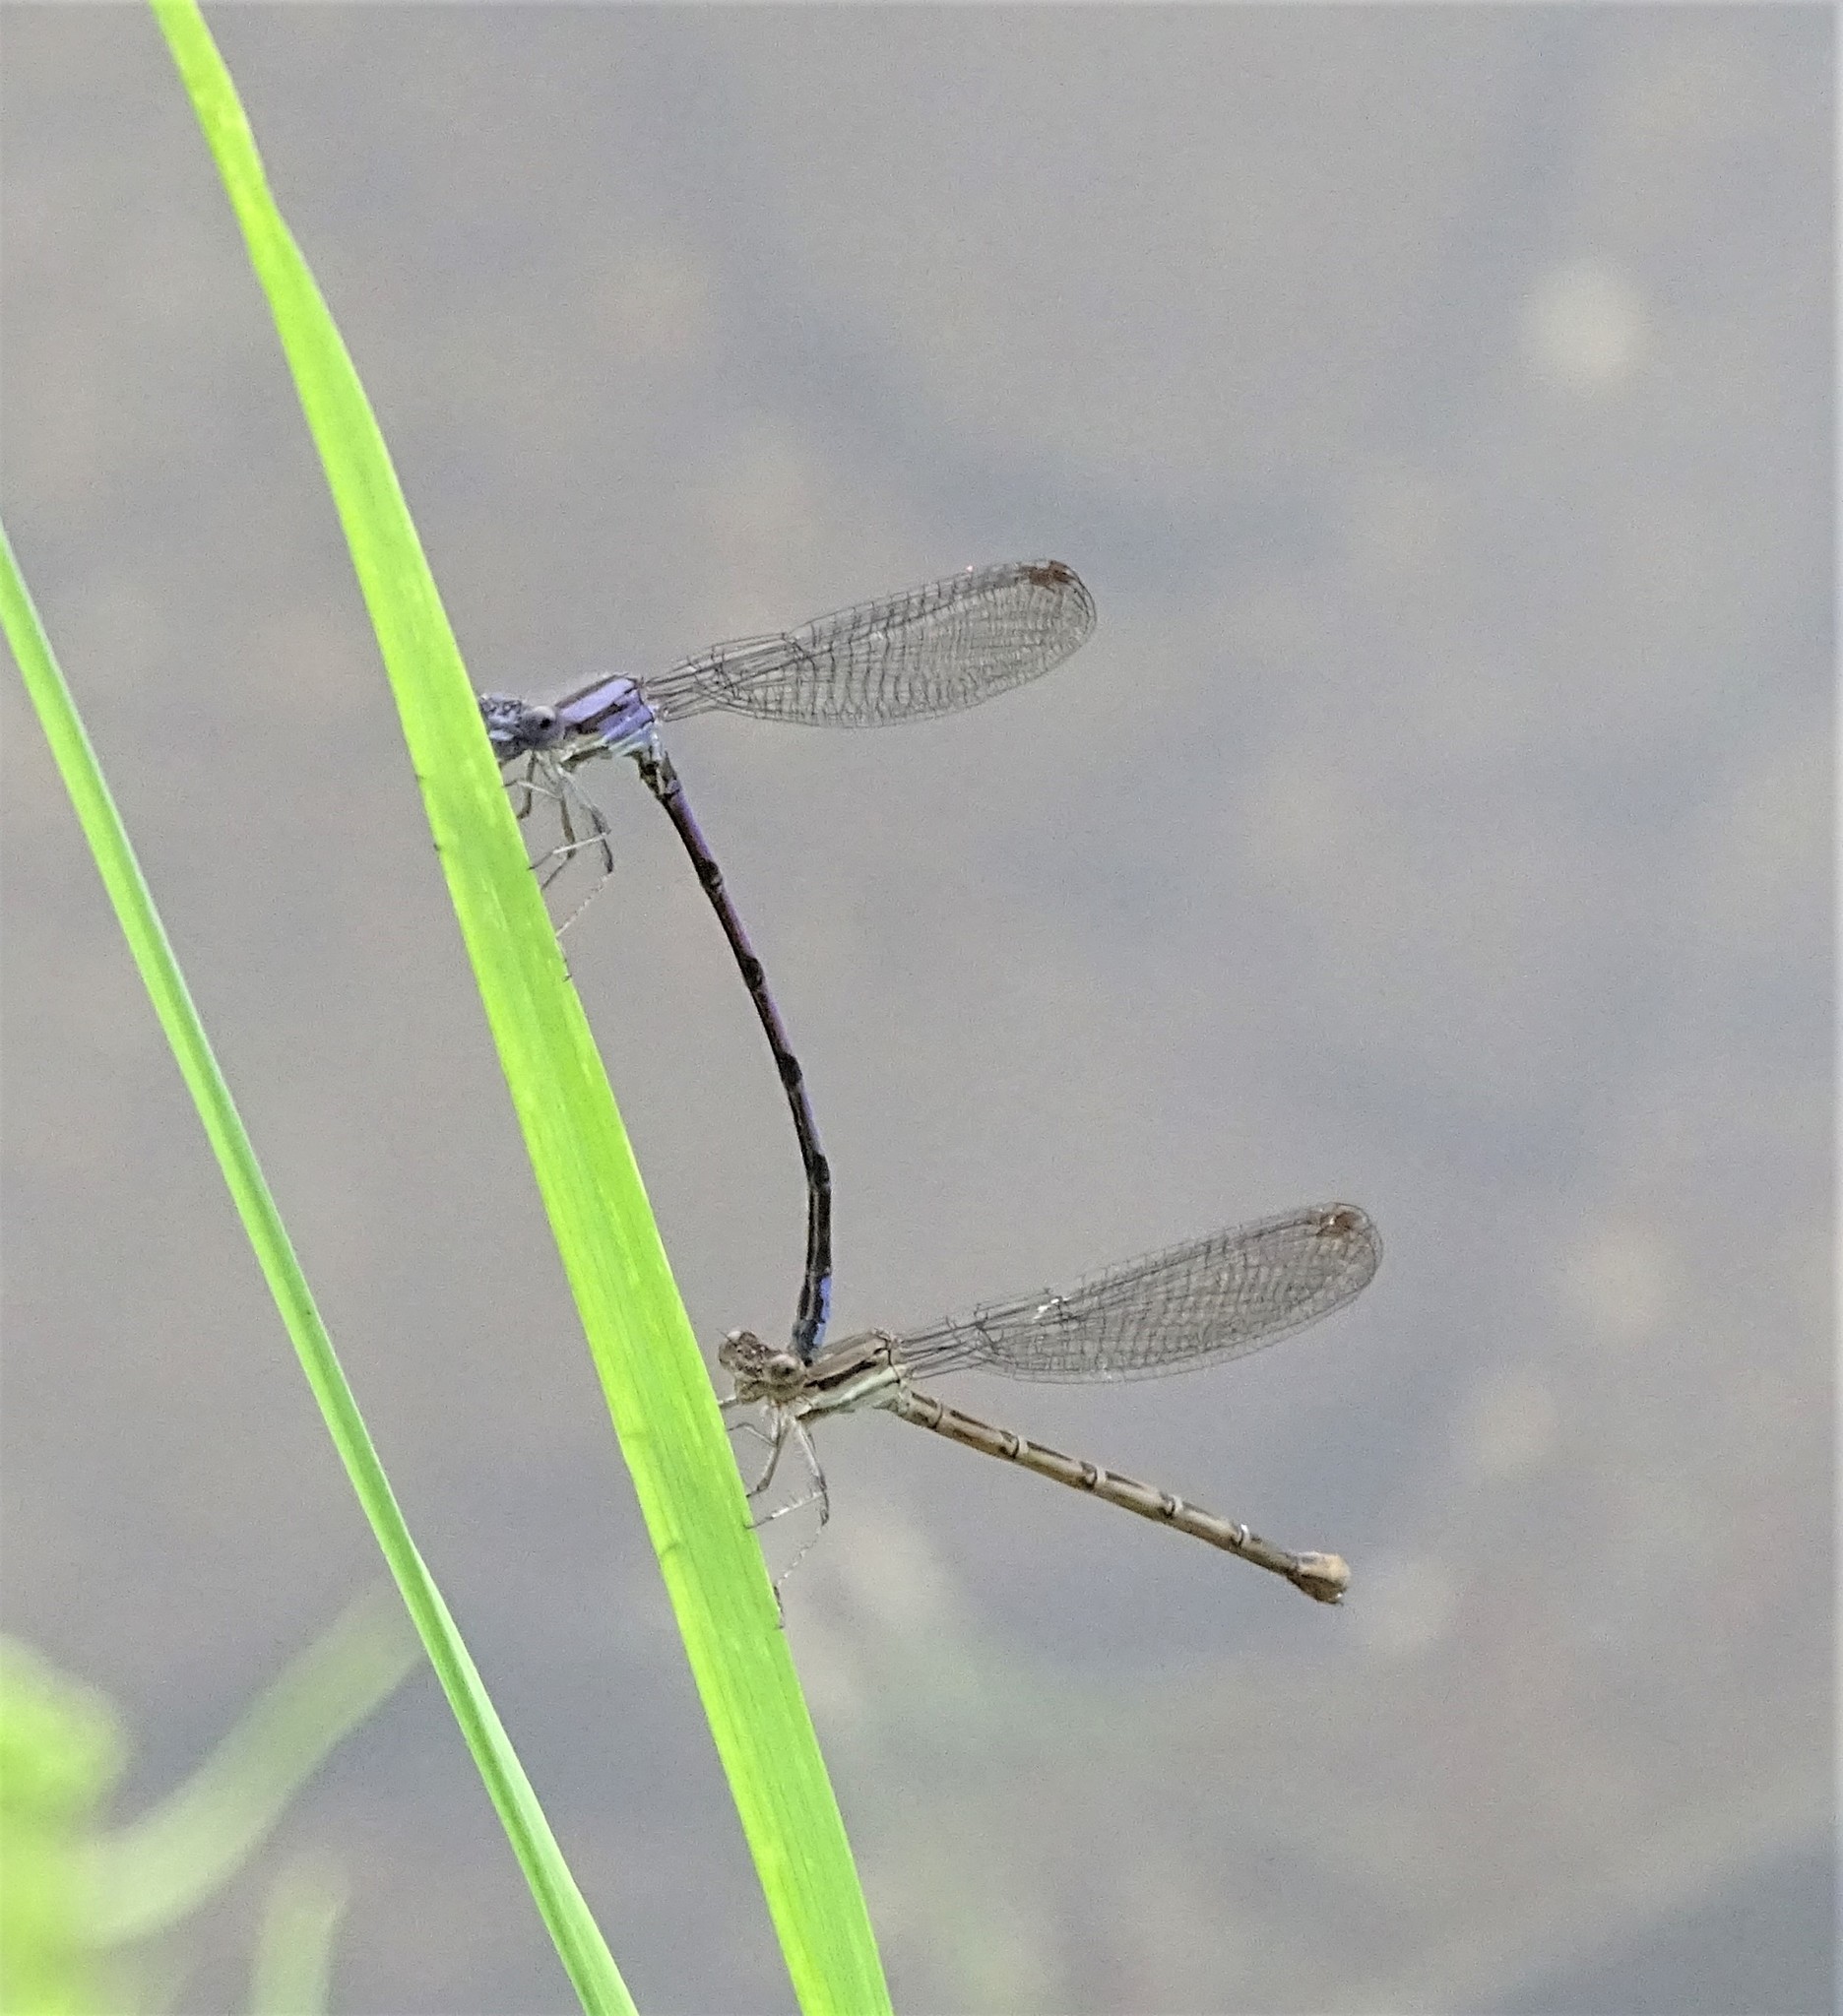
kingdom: Animalia
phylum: Arthropoda
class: Insecta
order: Odonata
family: Coenagrionidae
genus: Argia
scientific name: Argia fumipennis
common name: Variable dancer
